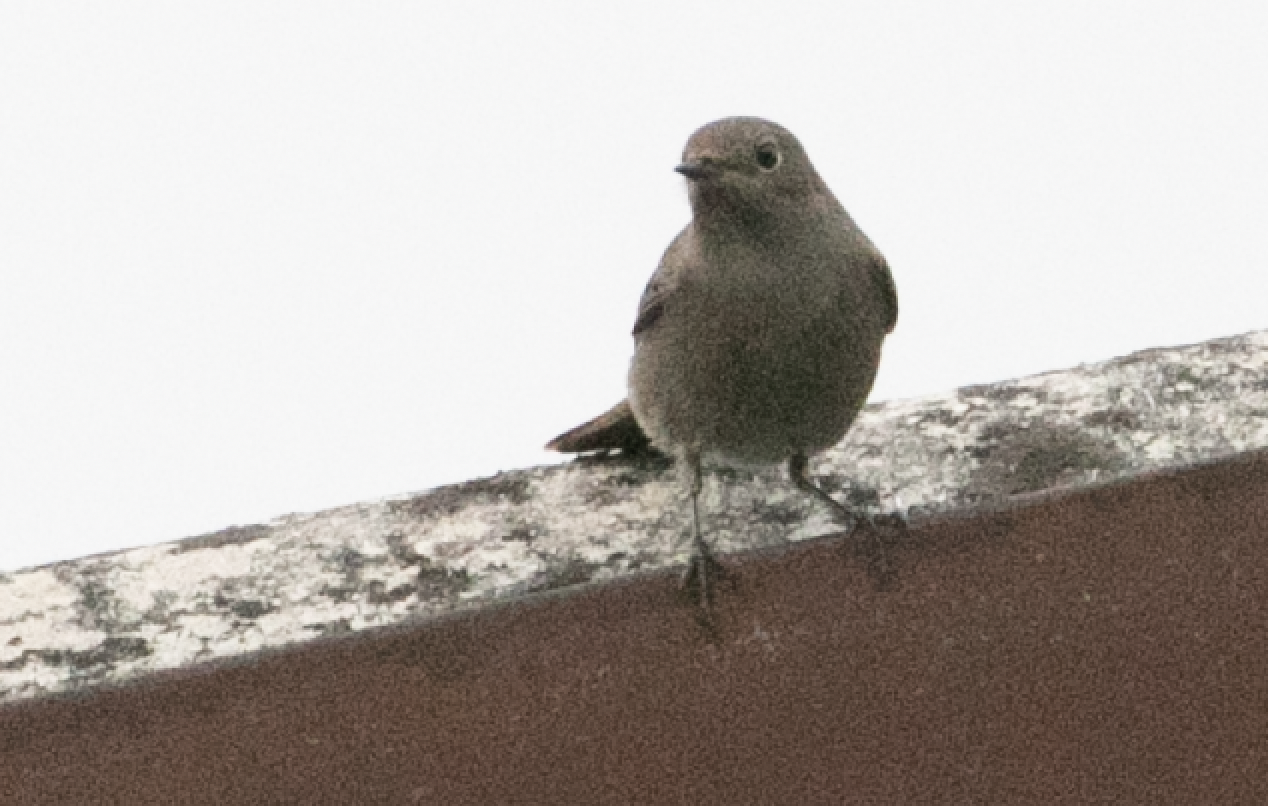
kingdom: Animalia
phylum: Chordata
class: Aves
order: Passeriformes
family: Muscicapidae
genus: Phoenicurus
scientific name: Phoenicurus ochruros
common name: Black redstart
